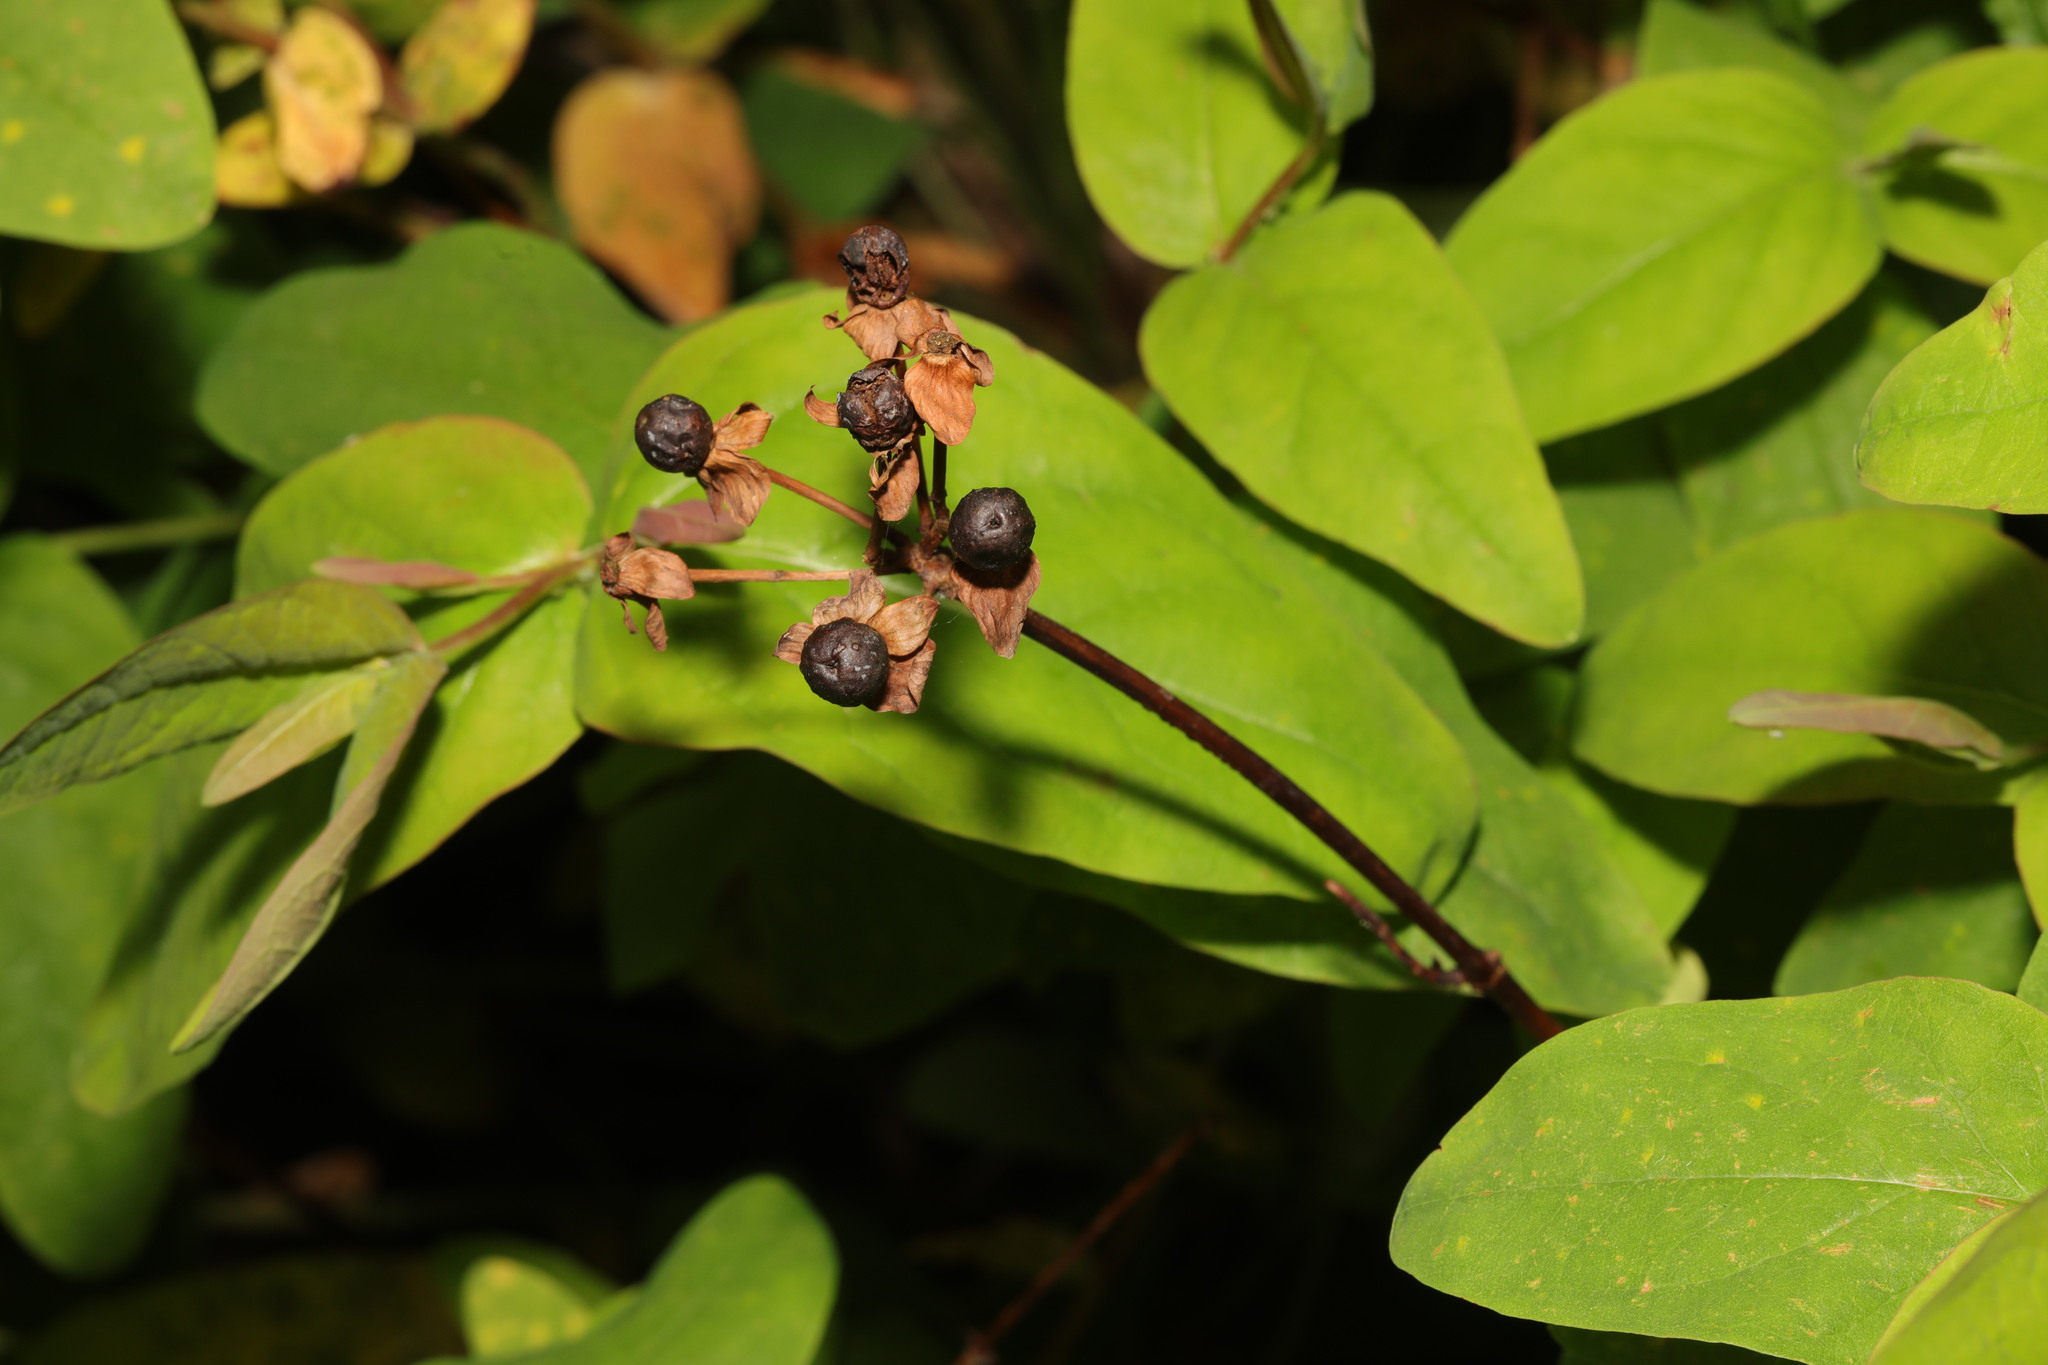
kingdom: Plantae
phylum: Tracheophyta
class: Magnoliopsida
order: Malpighiales
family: Hypericaceae
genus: Hypericum
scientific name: Hypericum androsaemum
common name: Sweet-amber
